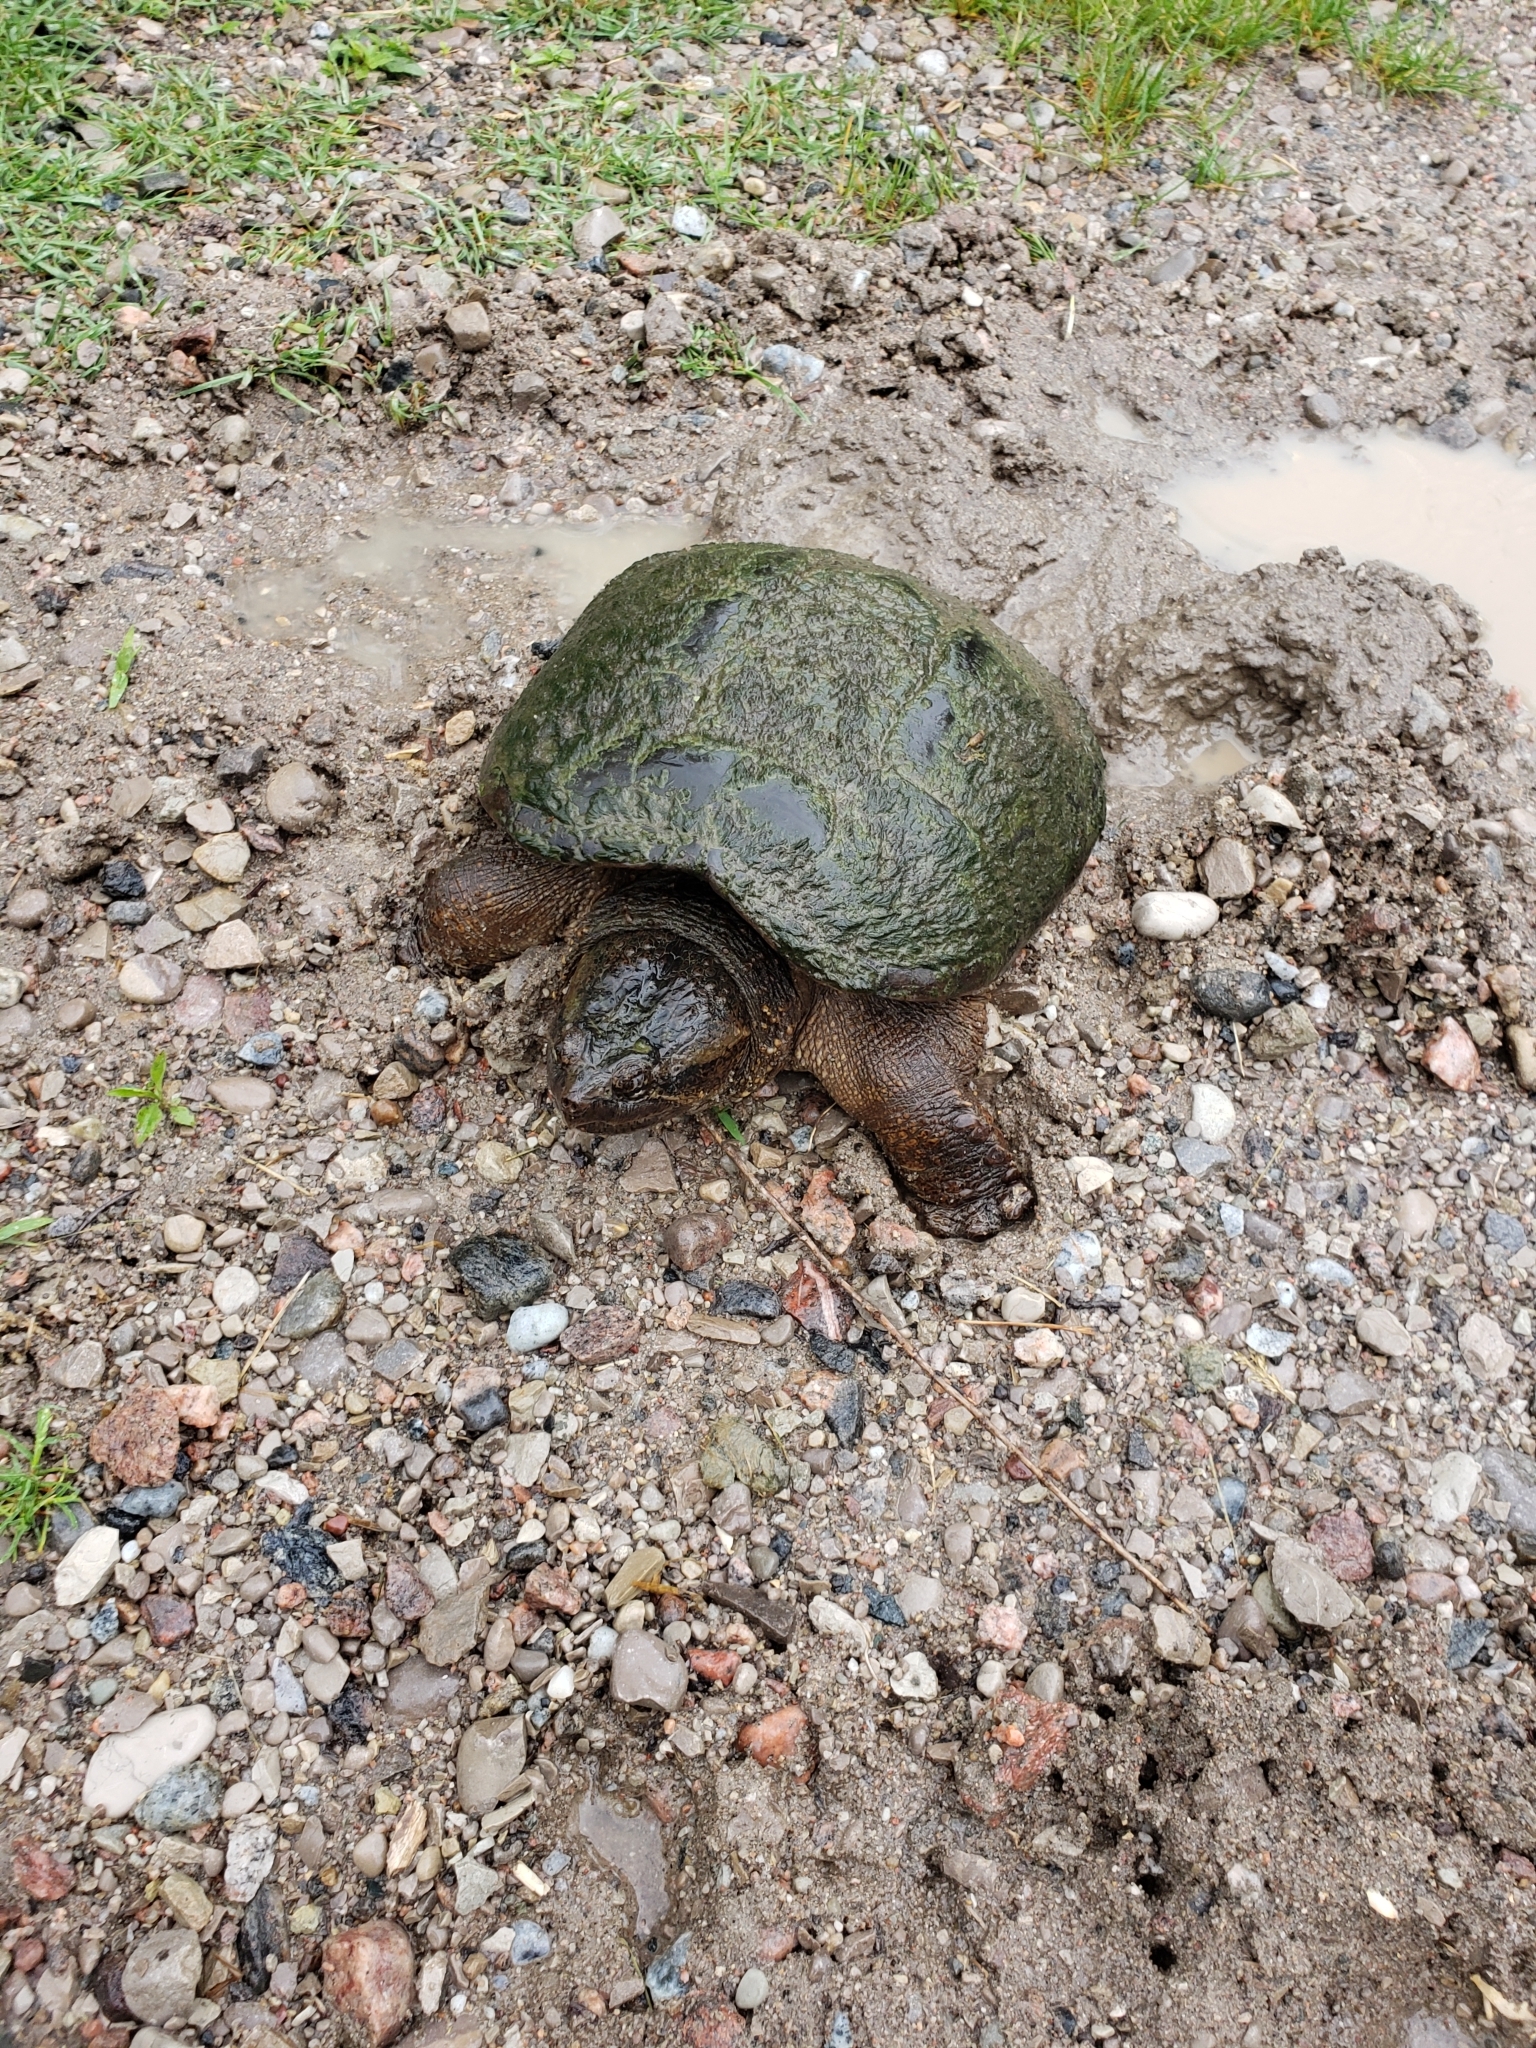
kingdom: Animalia
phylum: Chordata
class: Testudines
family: Chelydridae
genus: Chelydra
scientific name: Chelydra serpentina
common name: Common snapping turtle
